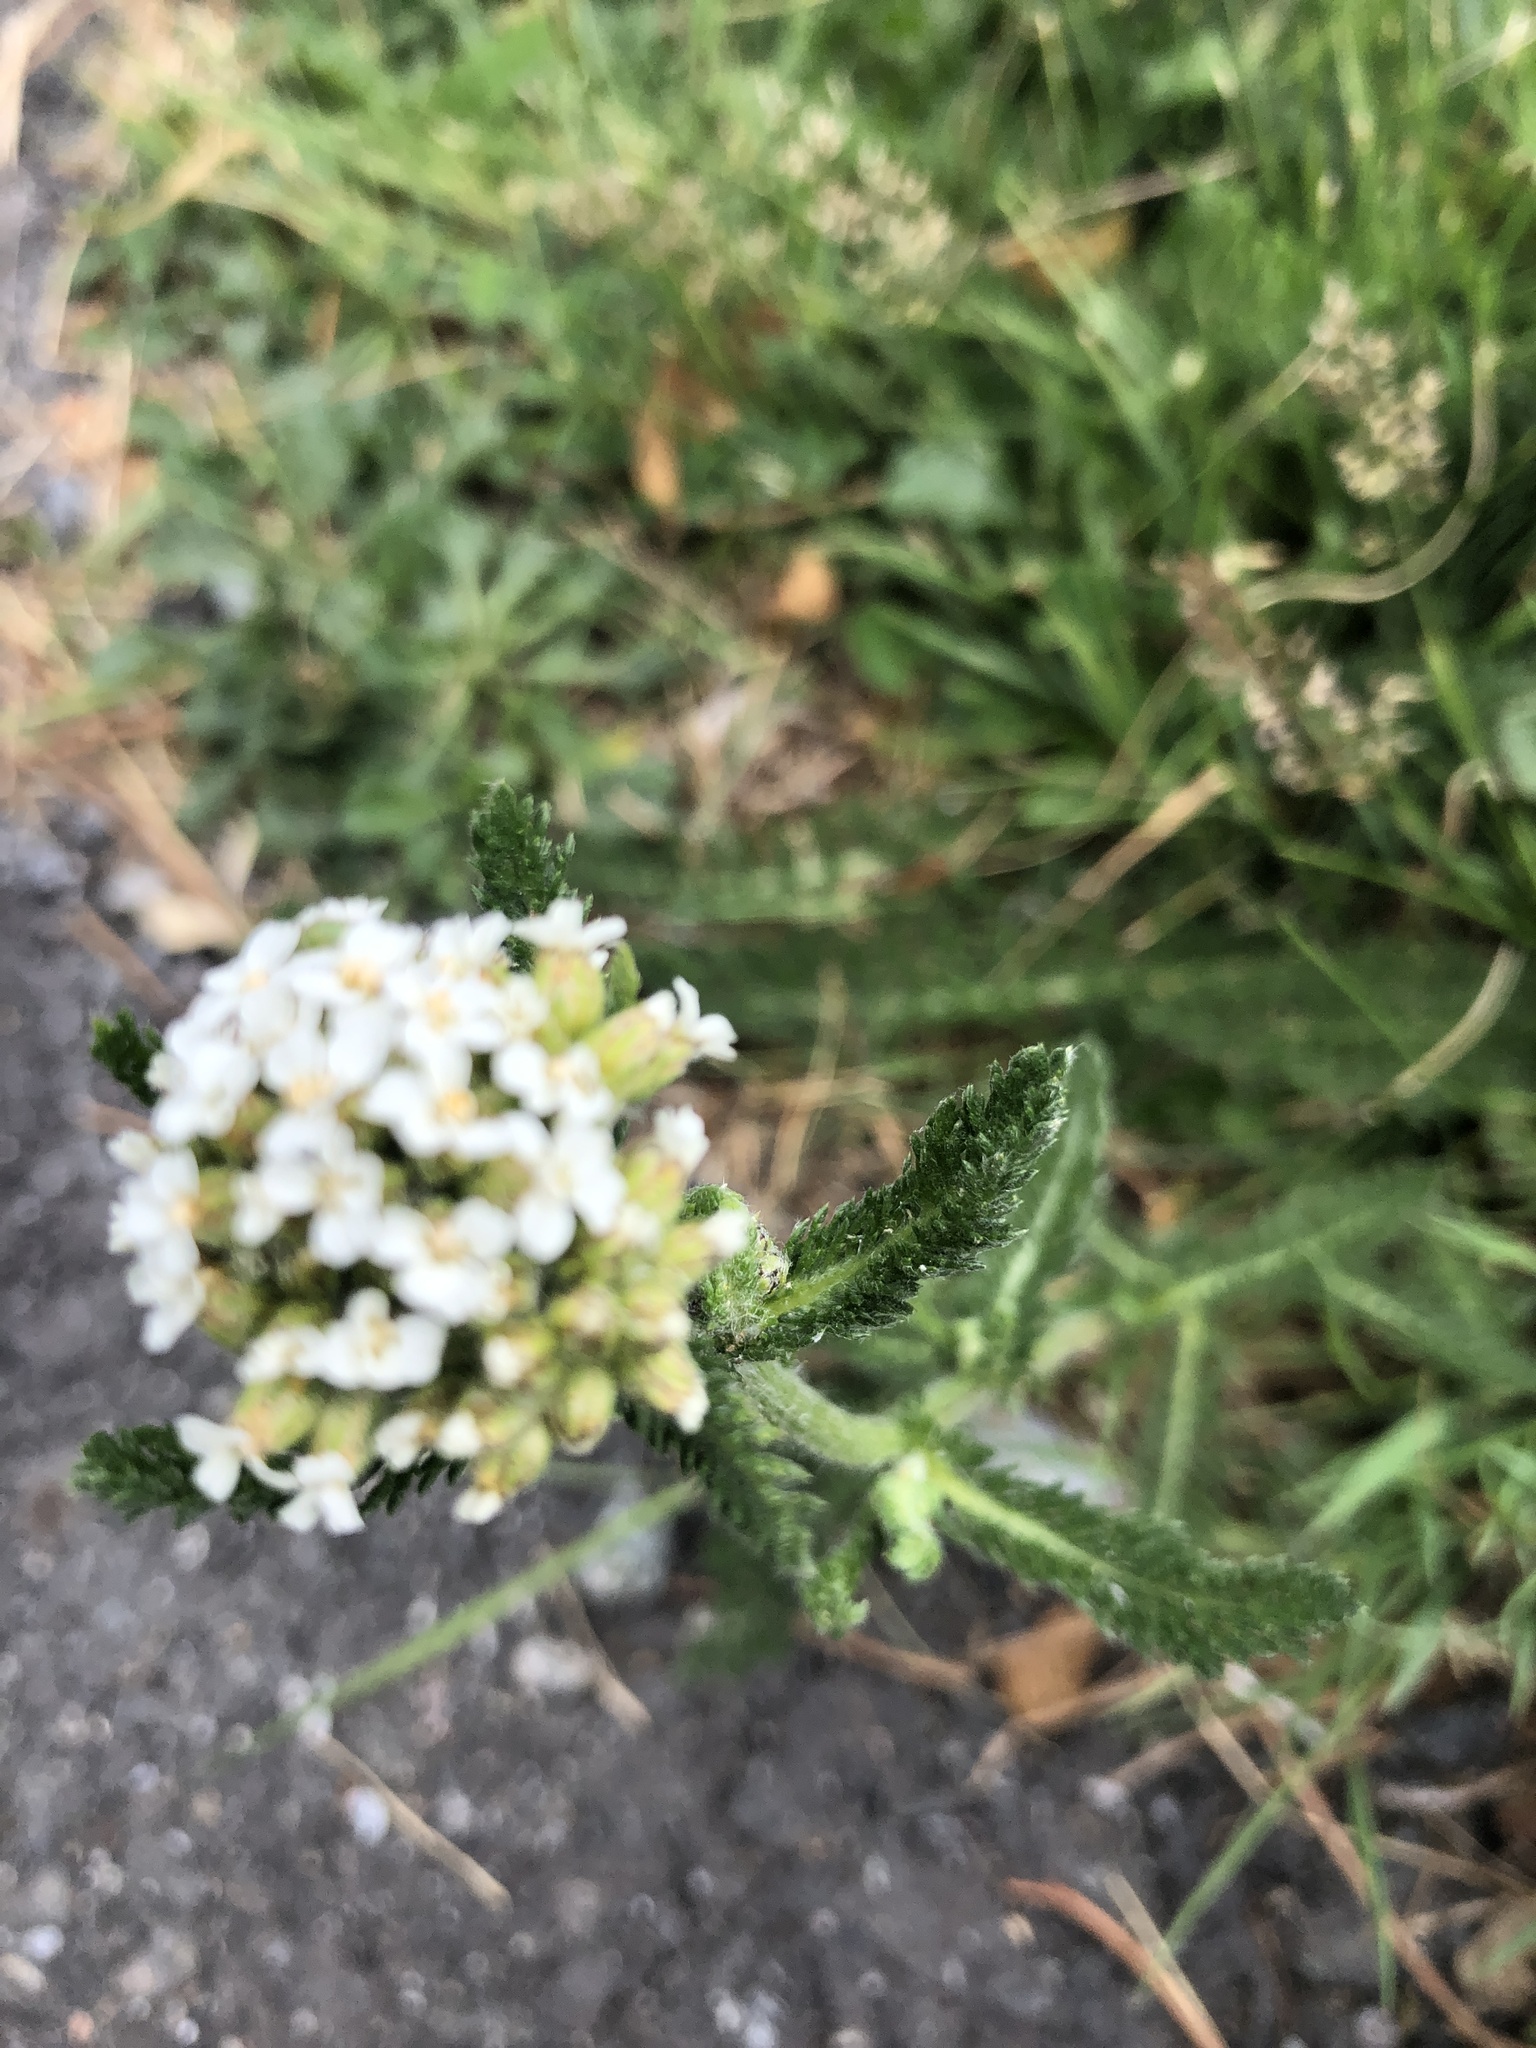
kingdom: Plantae
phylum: Tracheophyta
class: Magnoliopsida
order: Asterales
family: Asteraceae
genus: Achillea
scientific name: Achillea millefolium
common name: Yarrow
